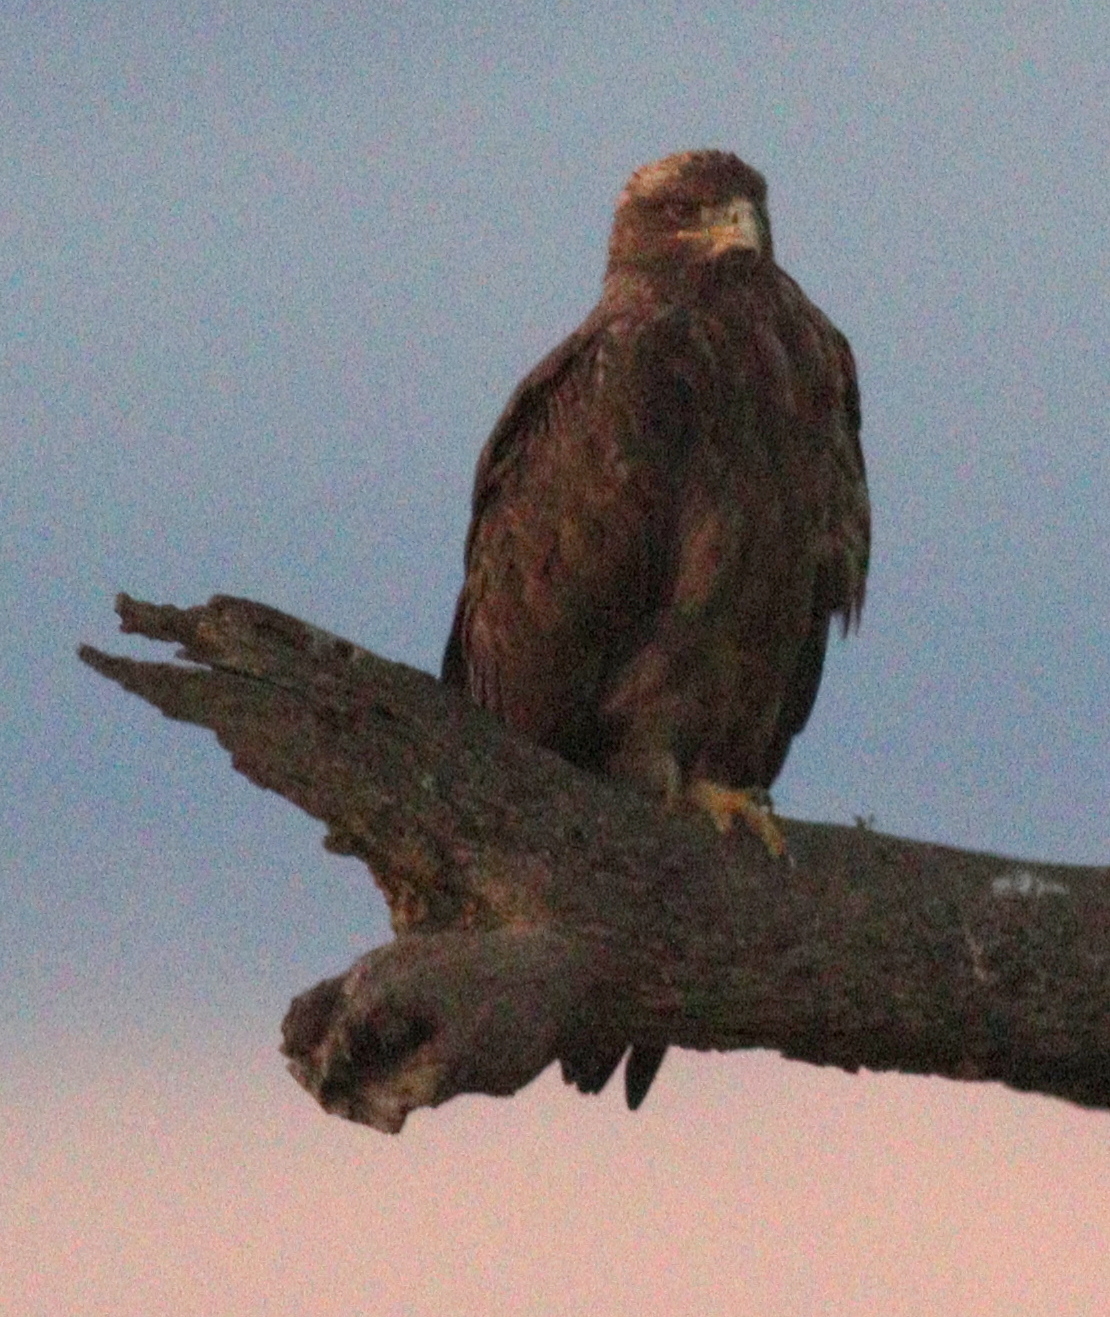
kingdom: Animalia
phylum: Chordata
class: Aves
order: Accipitriformes
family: Accipitridae
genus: Aquila
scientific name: Aquila rapax
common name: Tawny eagle
